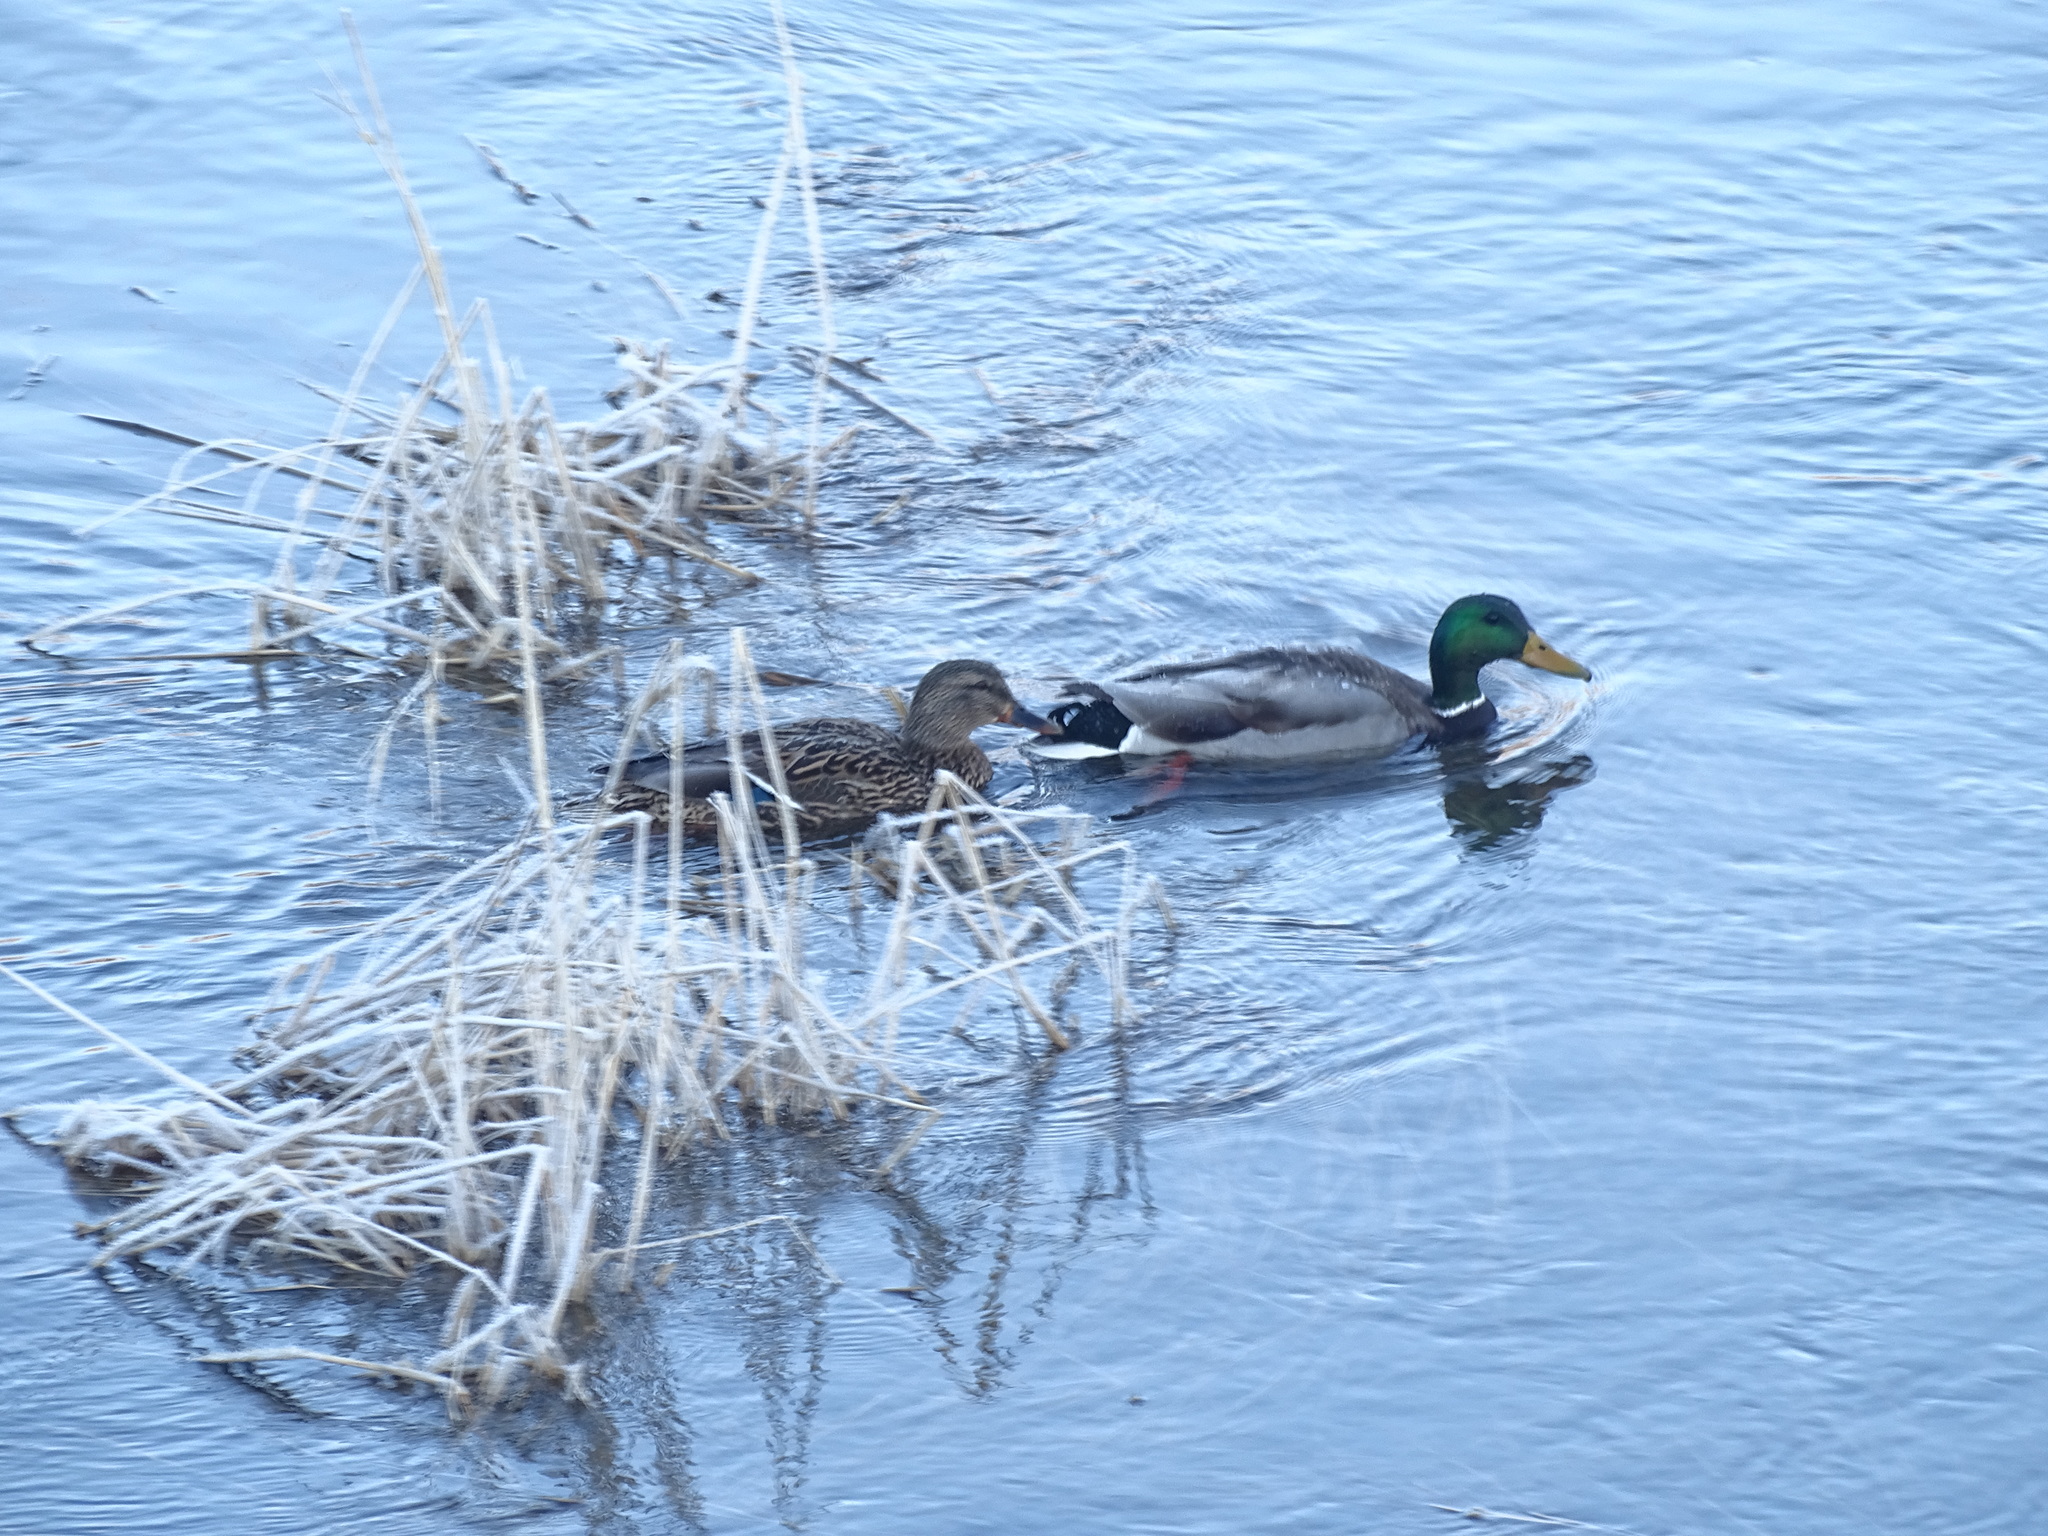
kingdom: Animalia
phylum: Chordata
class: Aves
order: Anseriformes
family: Anatidae
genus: Anas
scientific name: Anas platyrhynchos
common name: Mallard
